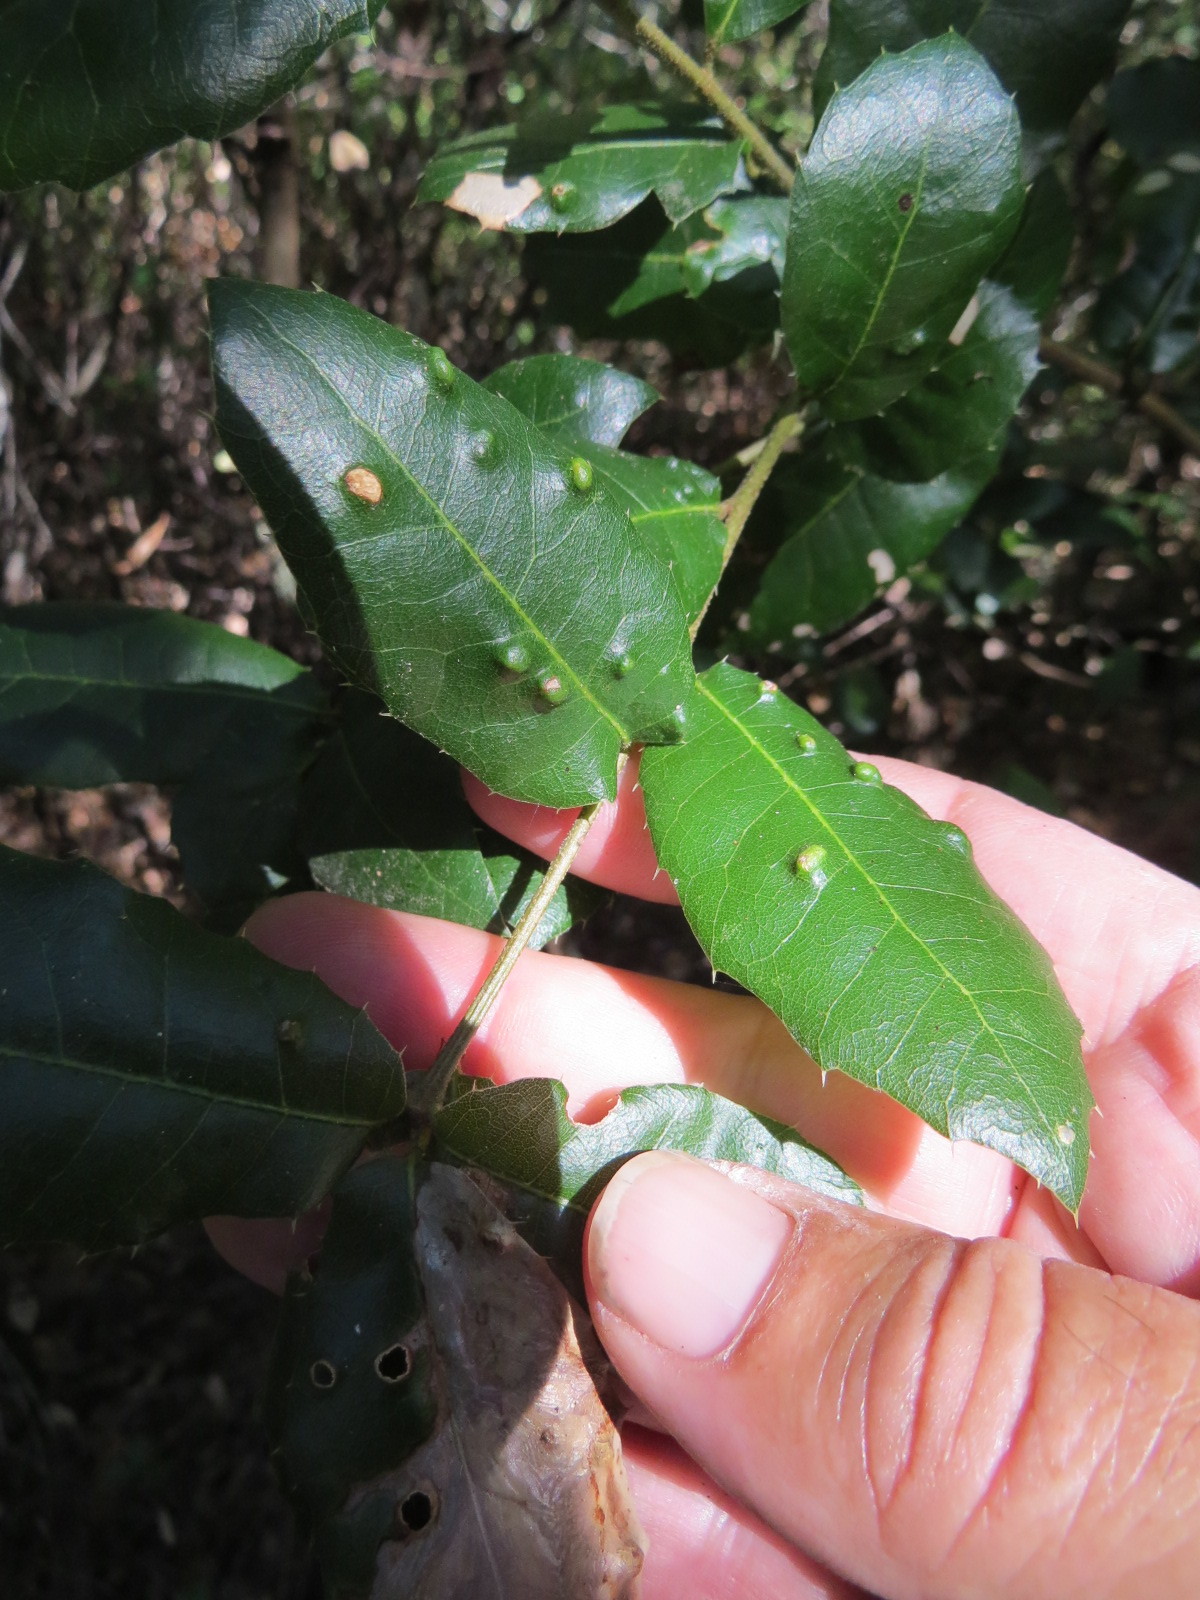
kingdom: Animalia
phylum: Arthropoda
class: Arachnida
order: Trombidiformes
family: Eriophyidae
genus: Aceria
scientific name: Aceria
